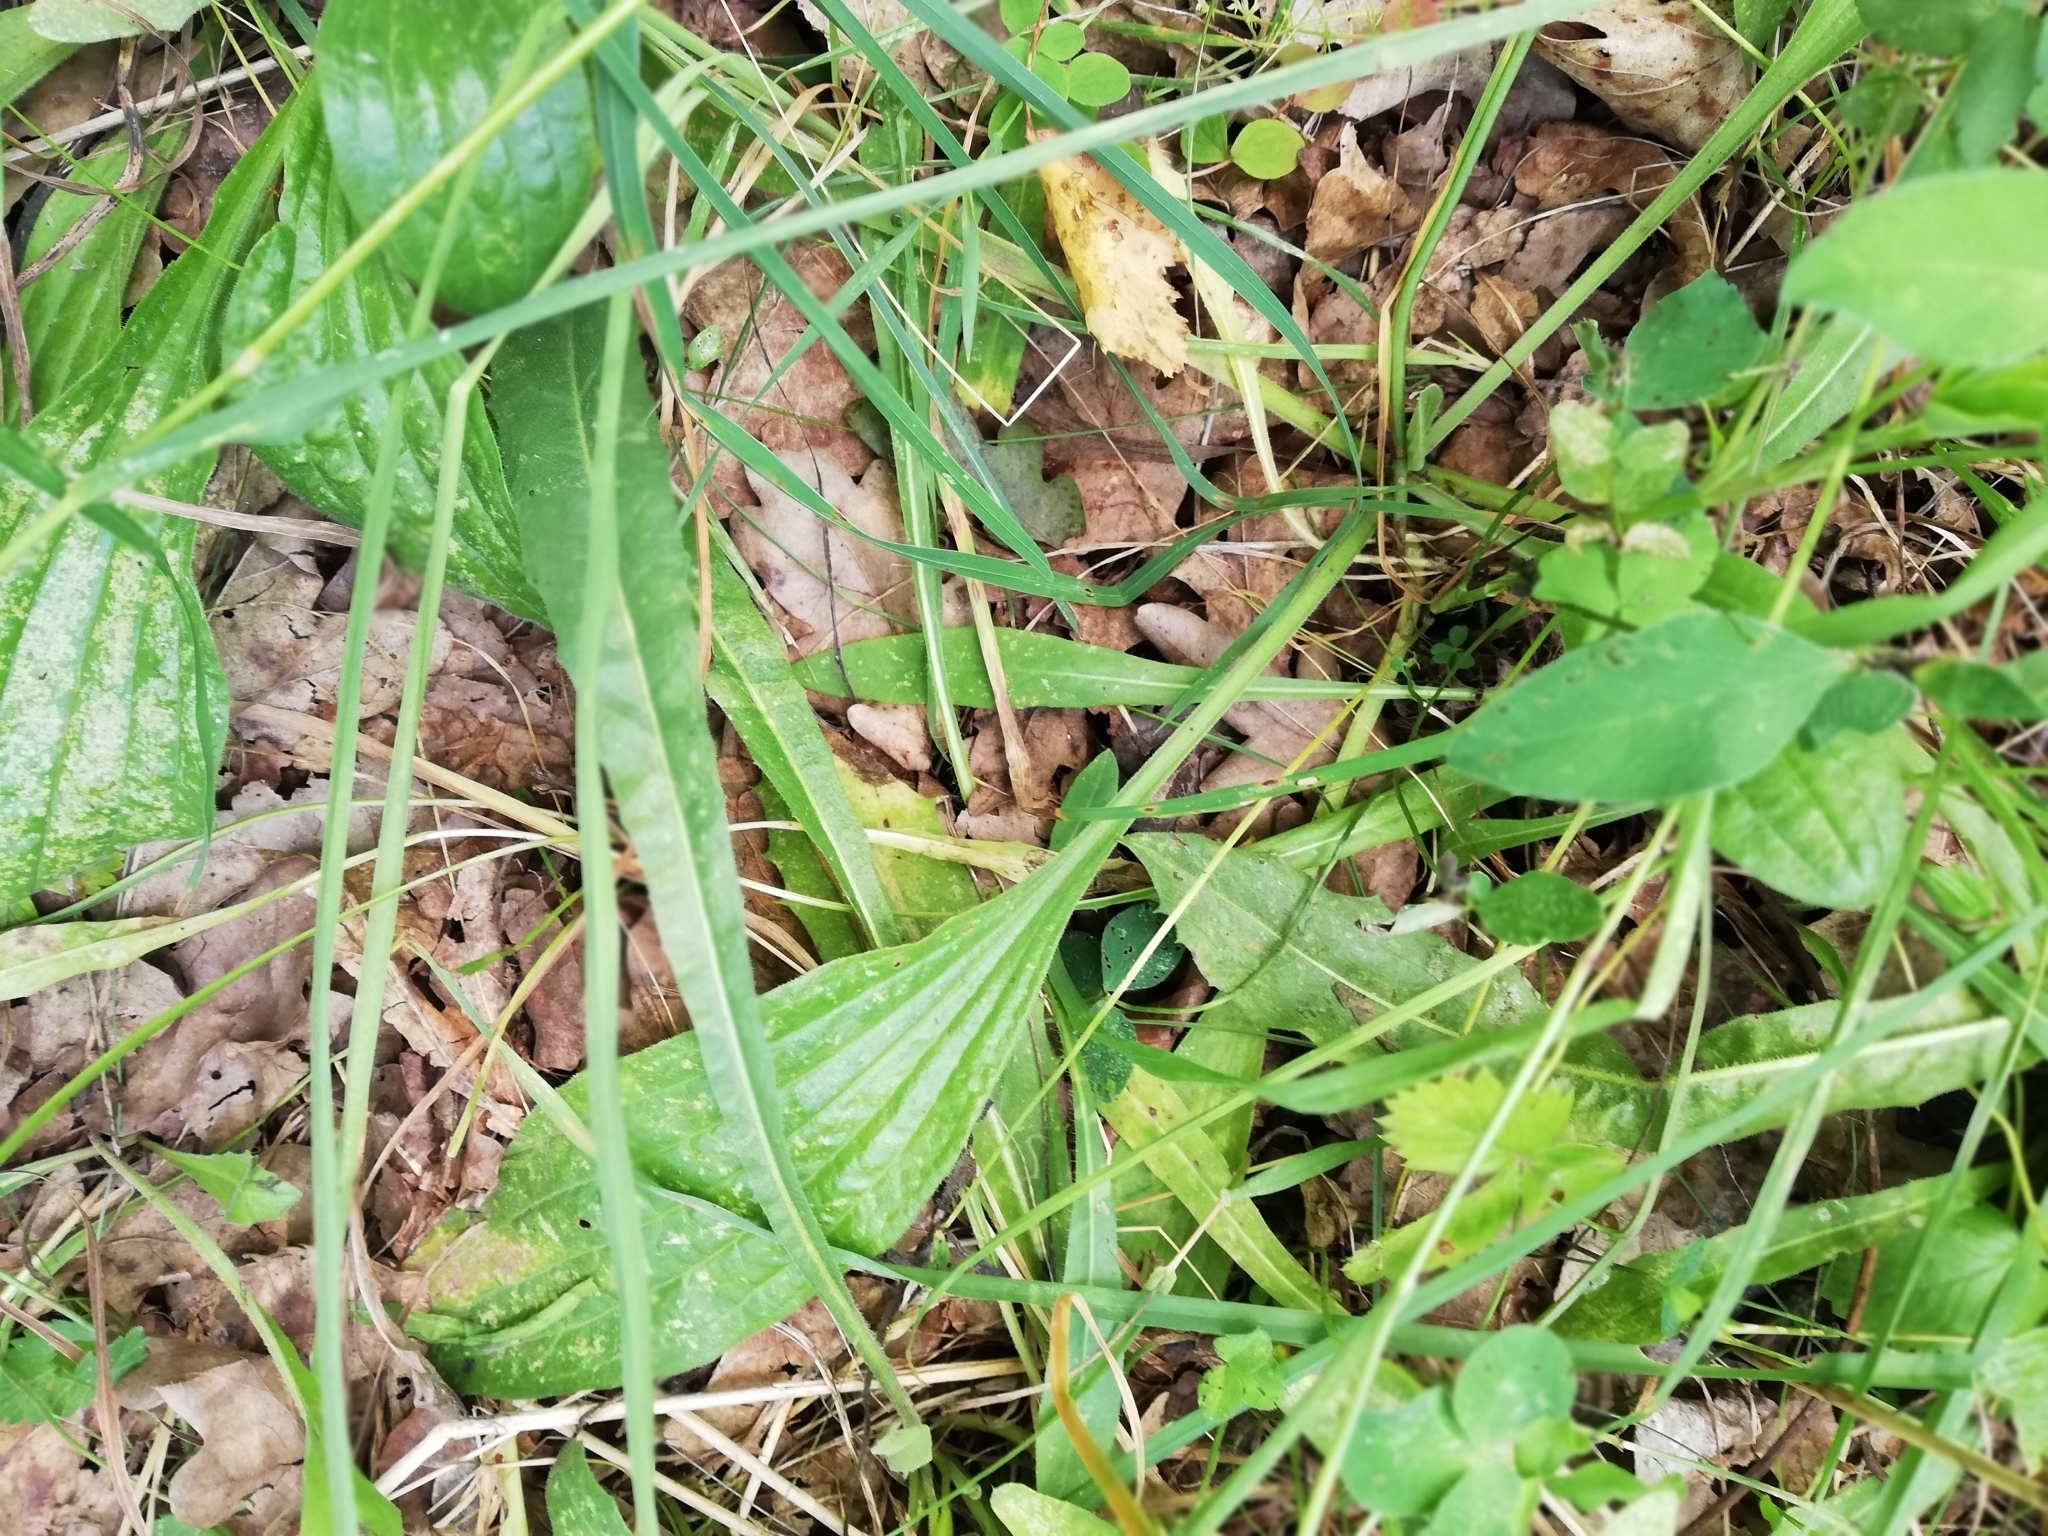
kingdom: Plantae
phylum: Tracheophyta
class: Magnoliopsida
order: Lamiales
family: Plantaginaceae
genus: Plantago
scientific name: Plantago media
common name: Hoary plantain
